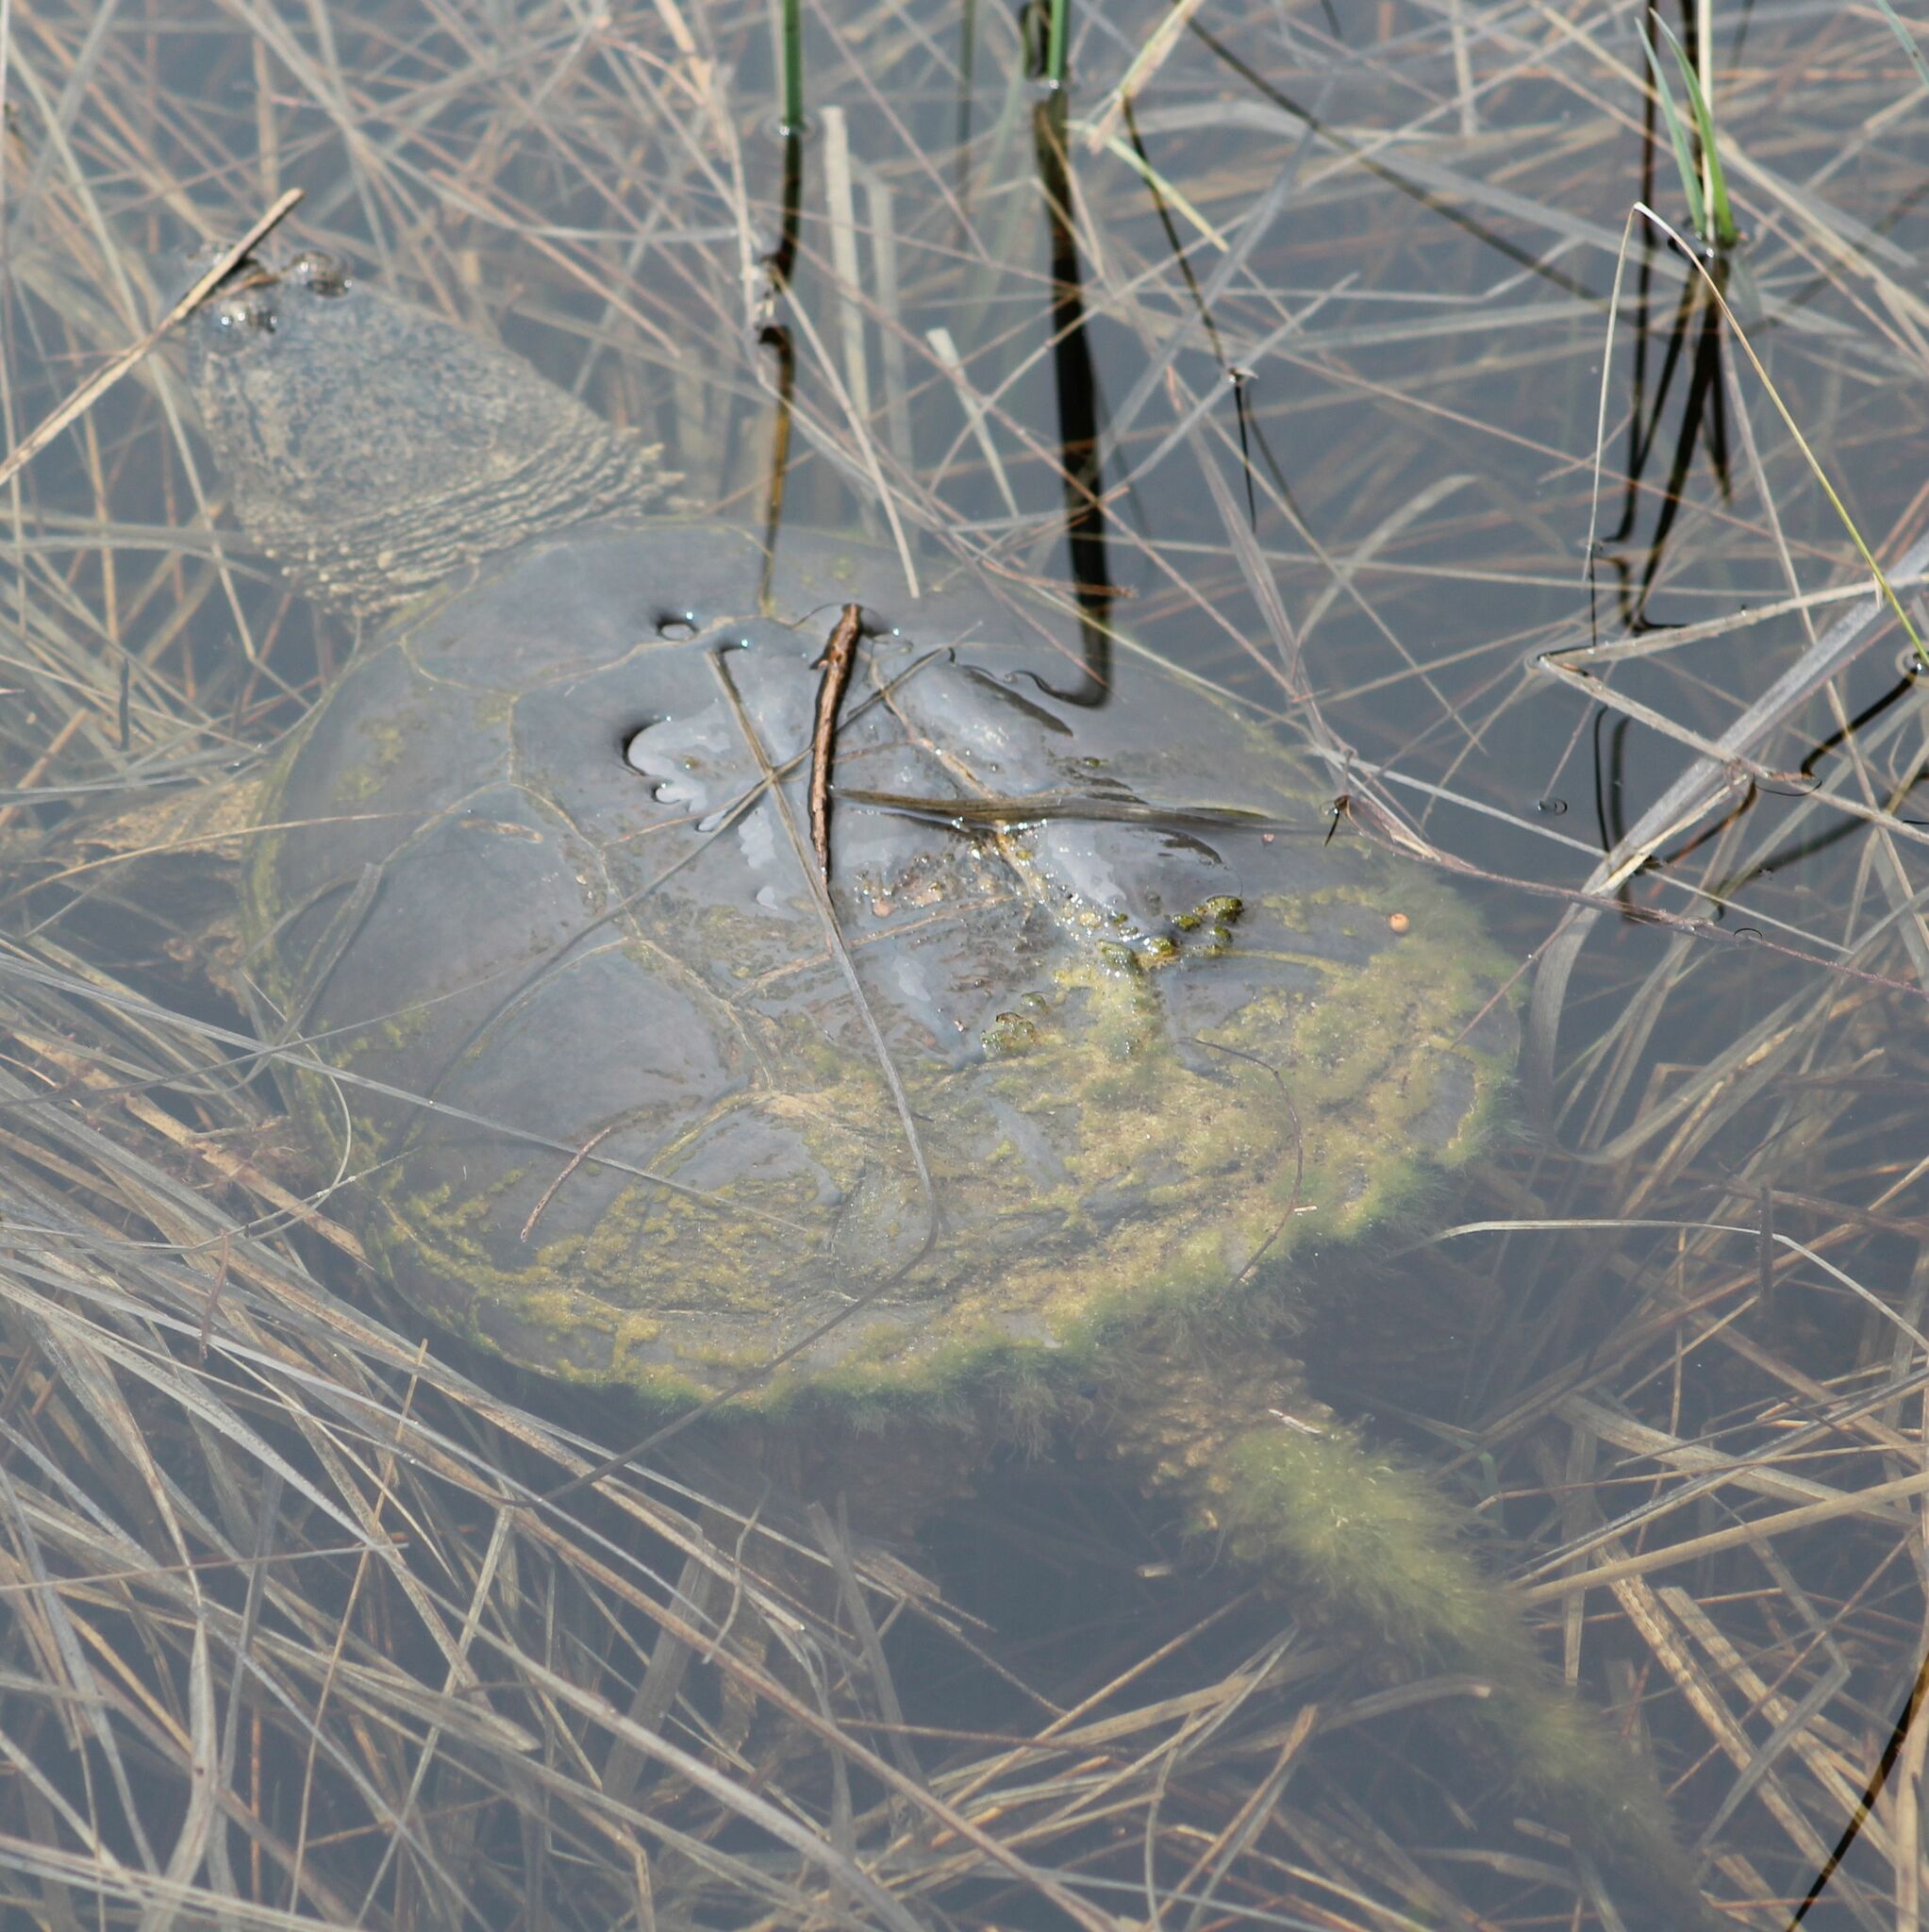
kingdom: Animalia
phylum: Chordata
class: Testudines
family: Chelydridae
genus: Chelydra
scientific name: Chelydra serpentina
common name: Common snapping turtle
